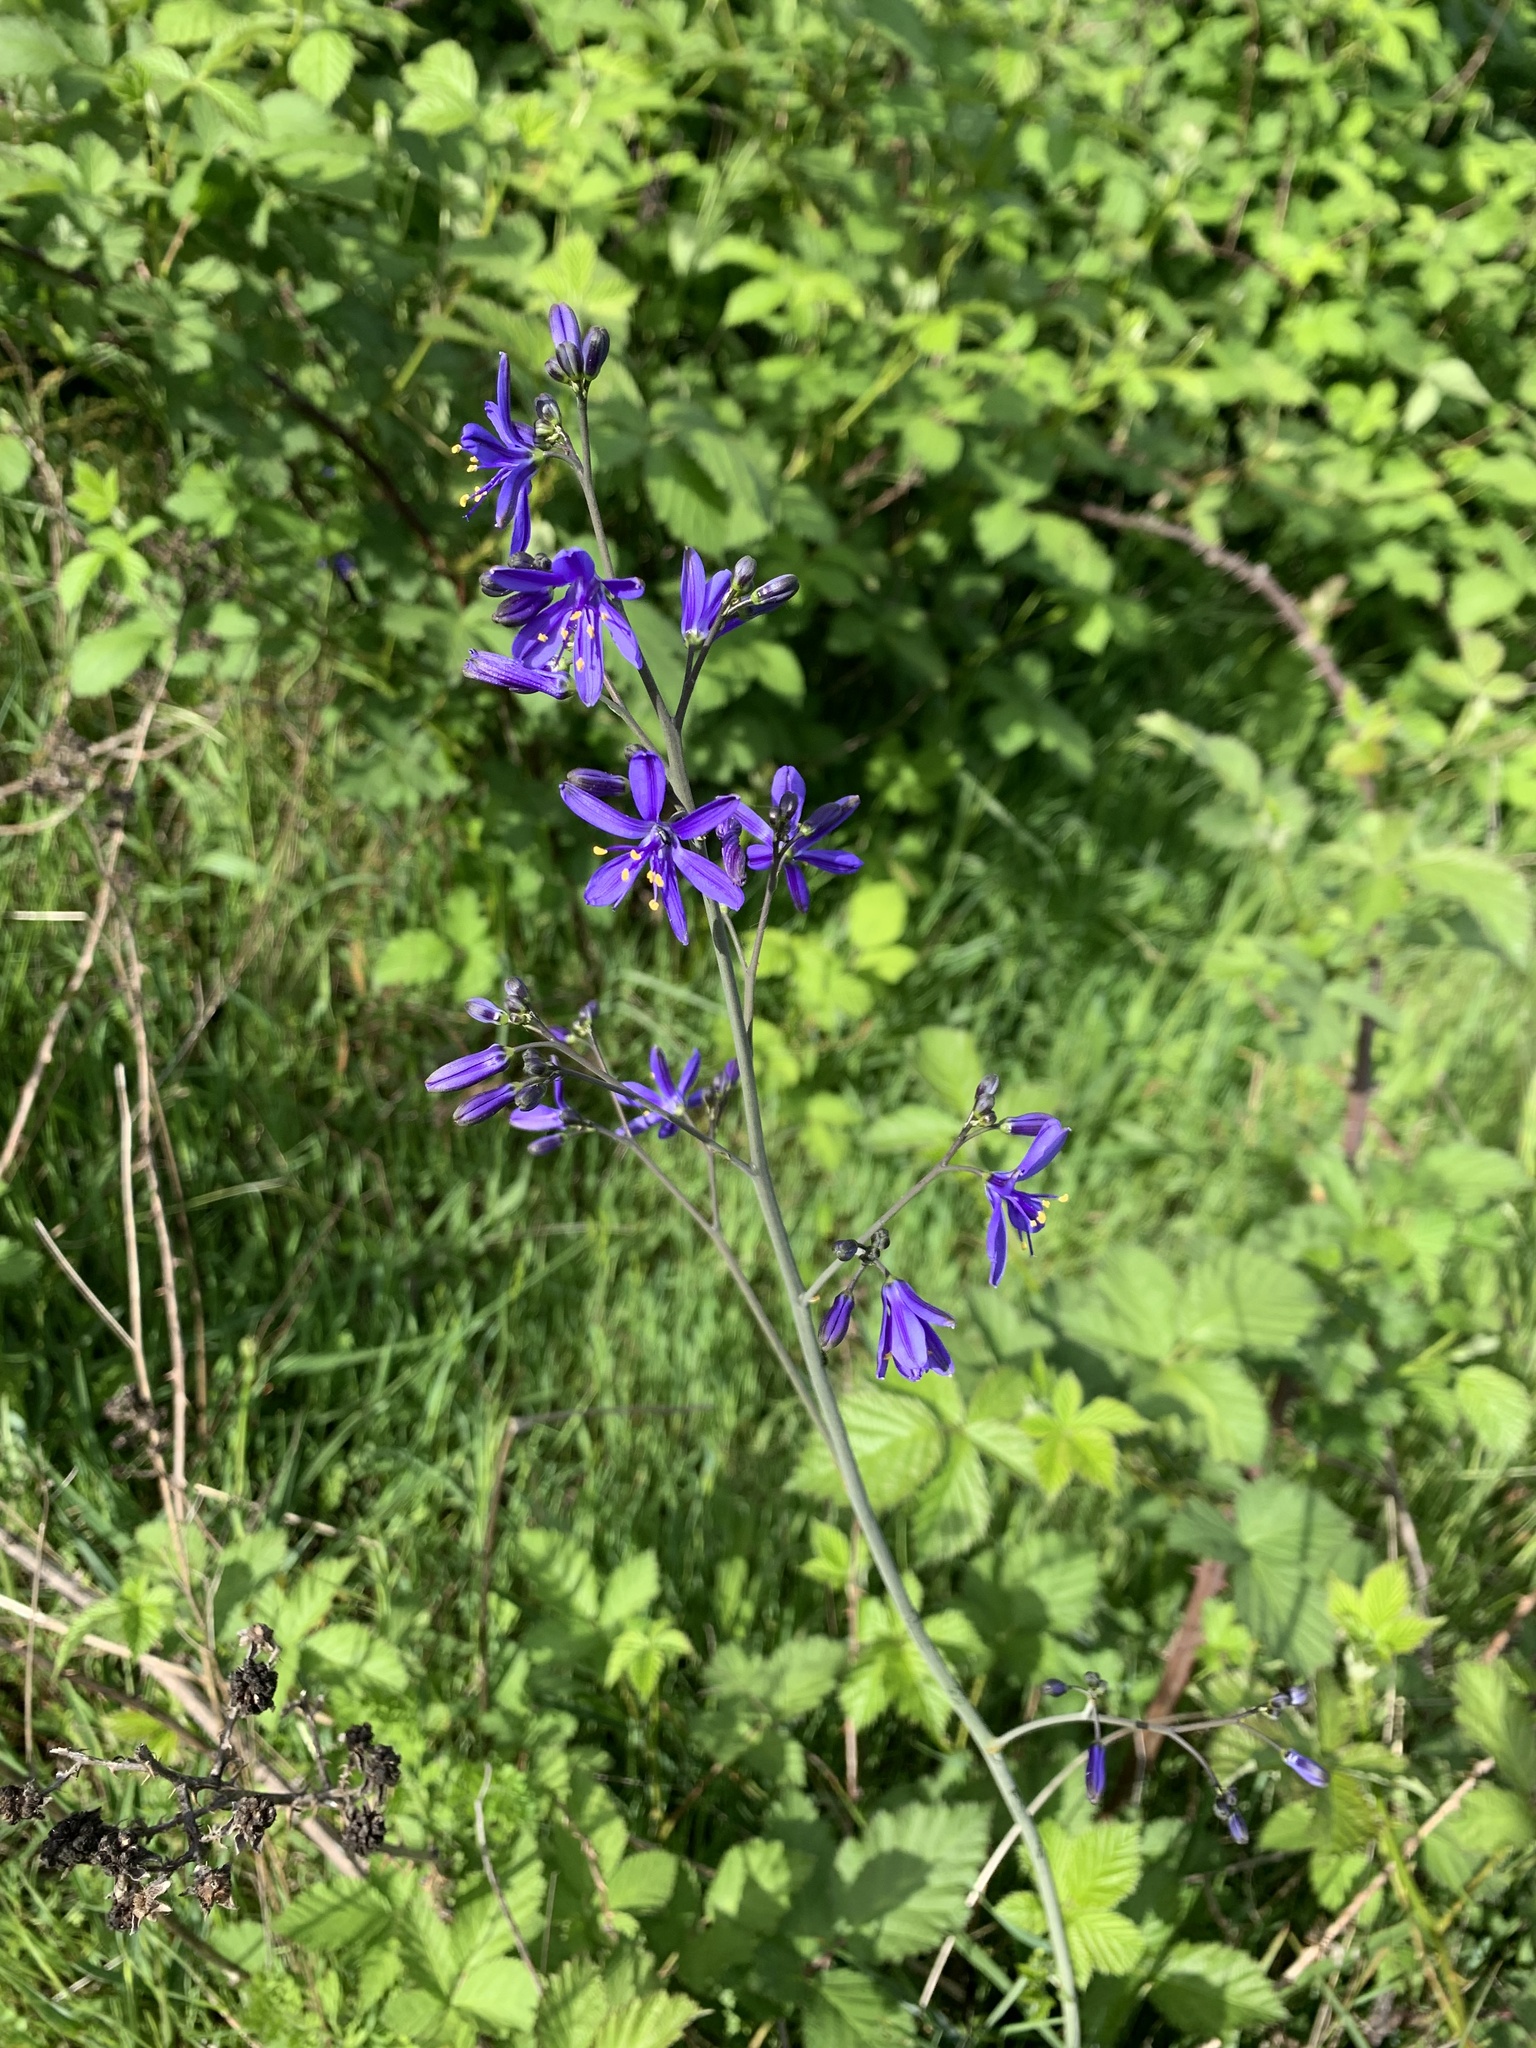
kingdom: Plantae
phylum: Tracheophyta
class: Liliopsida
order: Asparagales
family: Asphodelaceae
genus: Pasithea
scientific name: Pasithea caerulea
